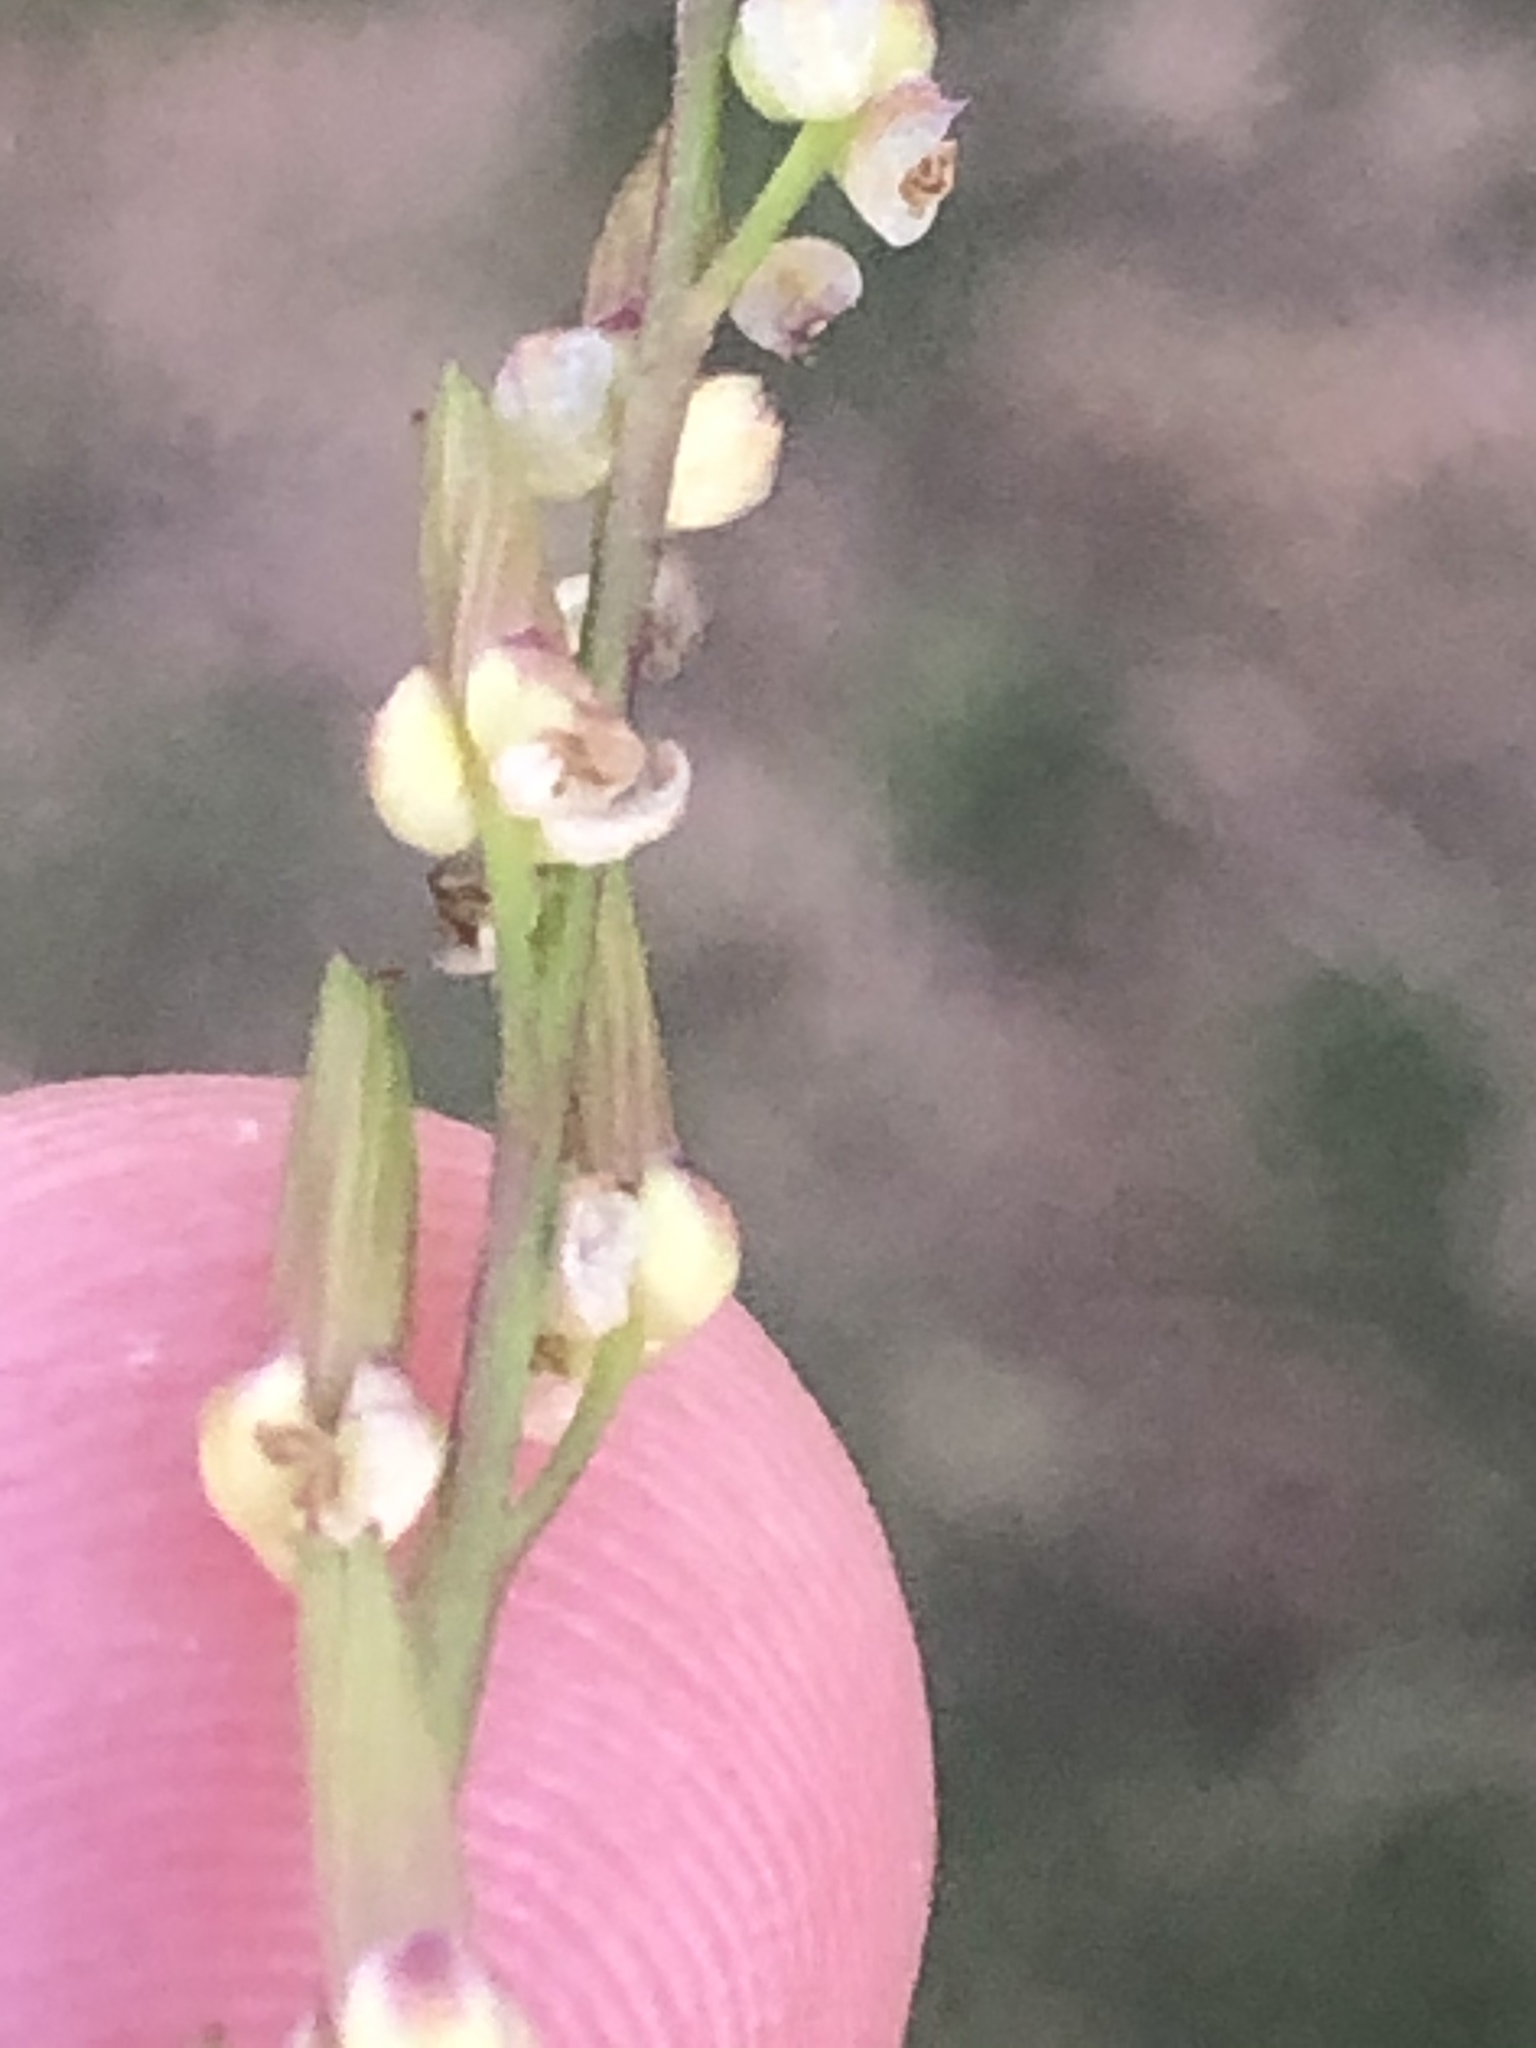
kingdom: Plantae
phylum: Tracheophyta
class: Liliopsida
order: Alismatales
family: Juncaginaceae
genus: Triglochin
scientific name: Triglochin bulbosa
